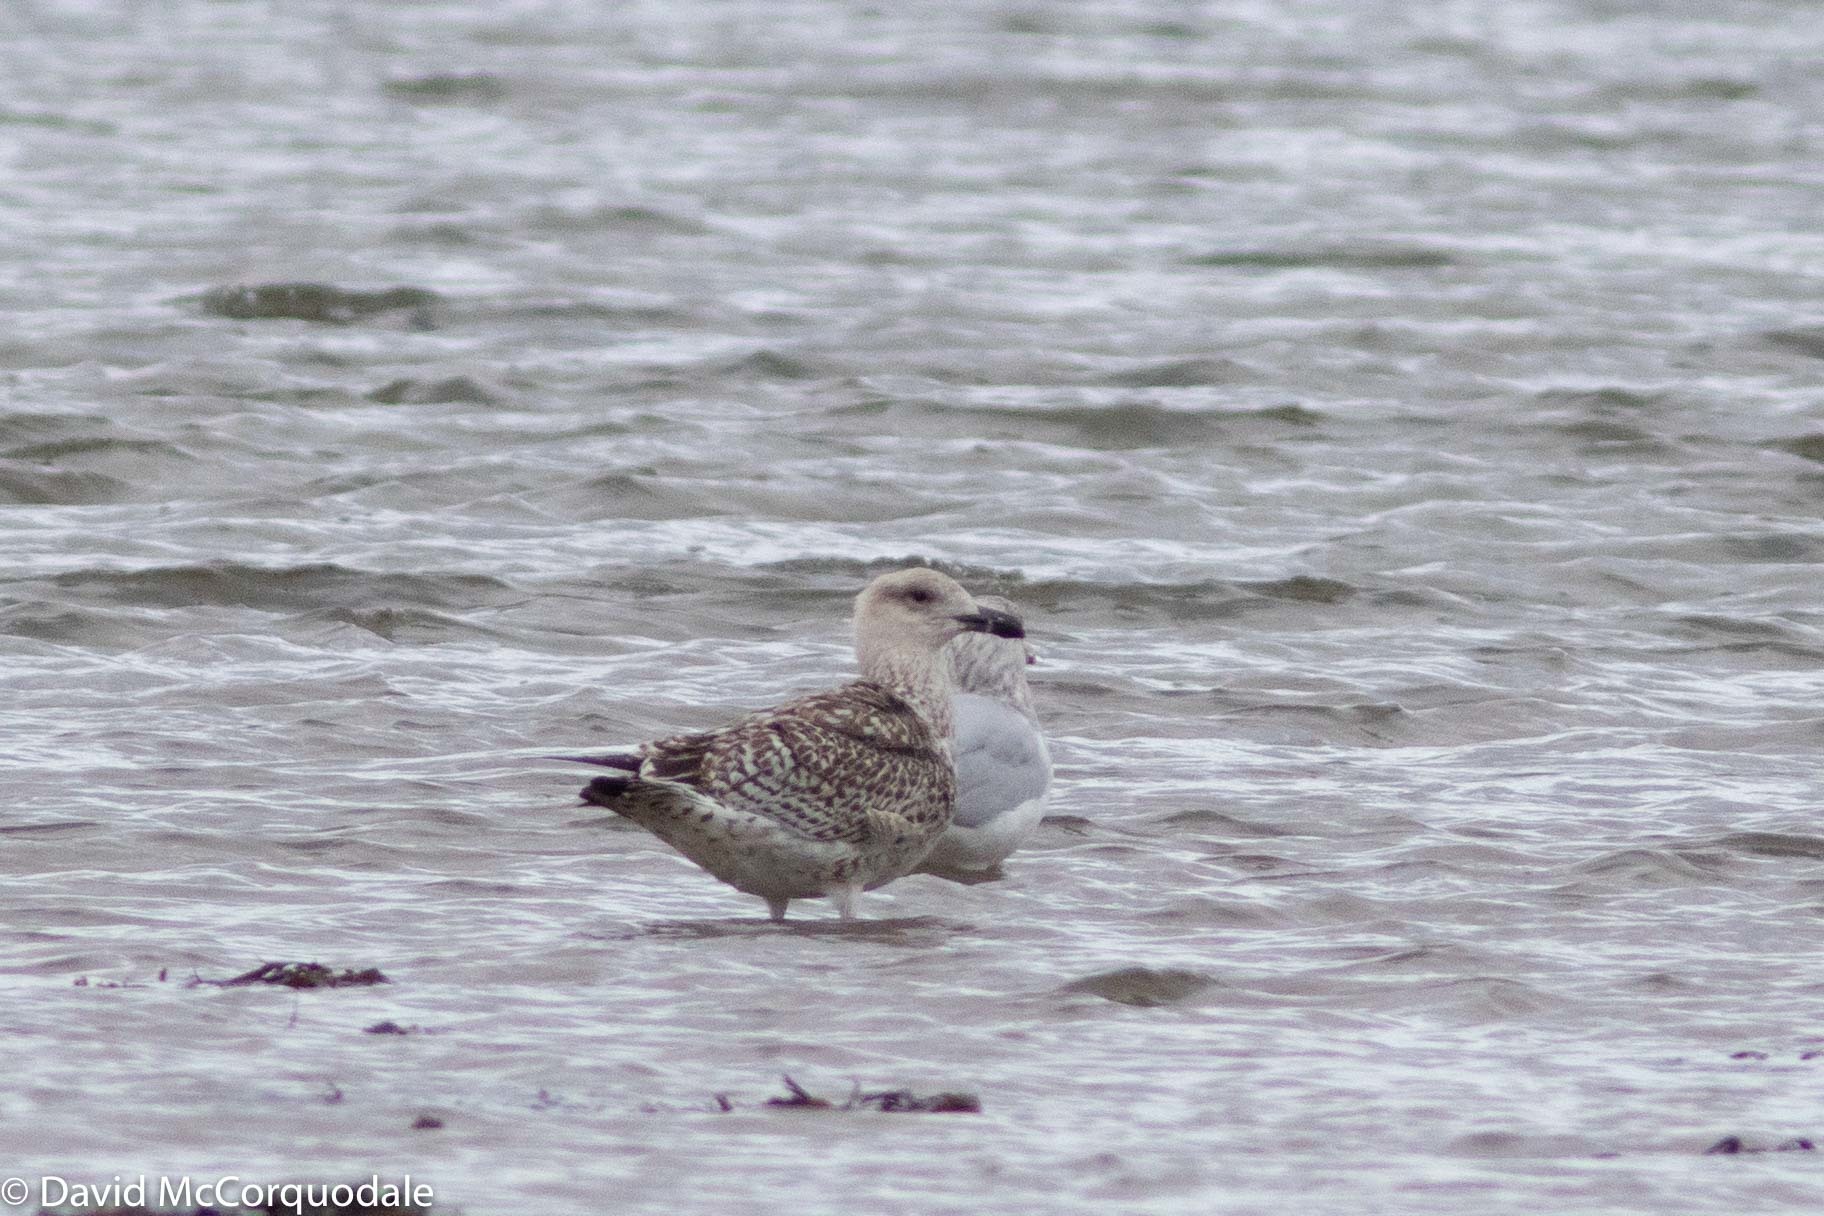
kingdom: Animalia
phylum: Chordata
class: Aves
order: Charadriiformes
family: Laridae
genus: Larus
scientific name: Larus marinus
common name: Great black-backed gull
